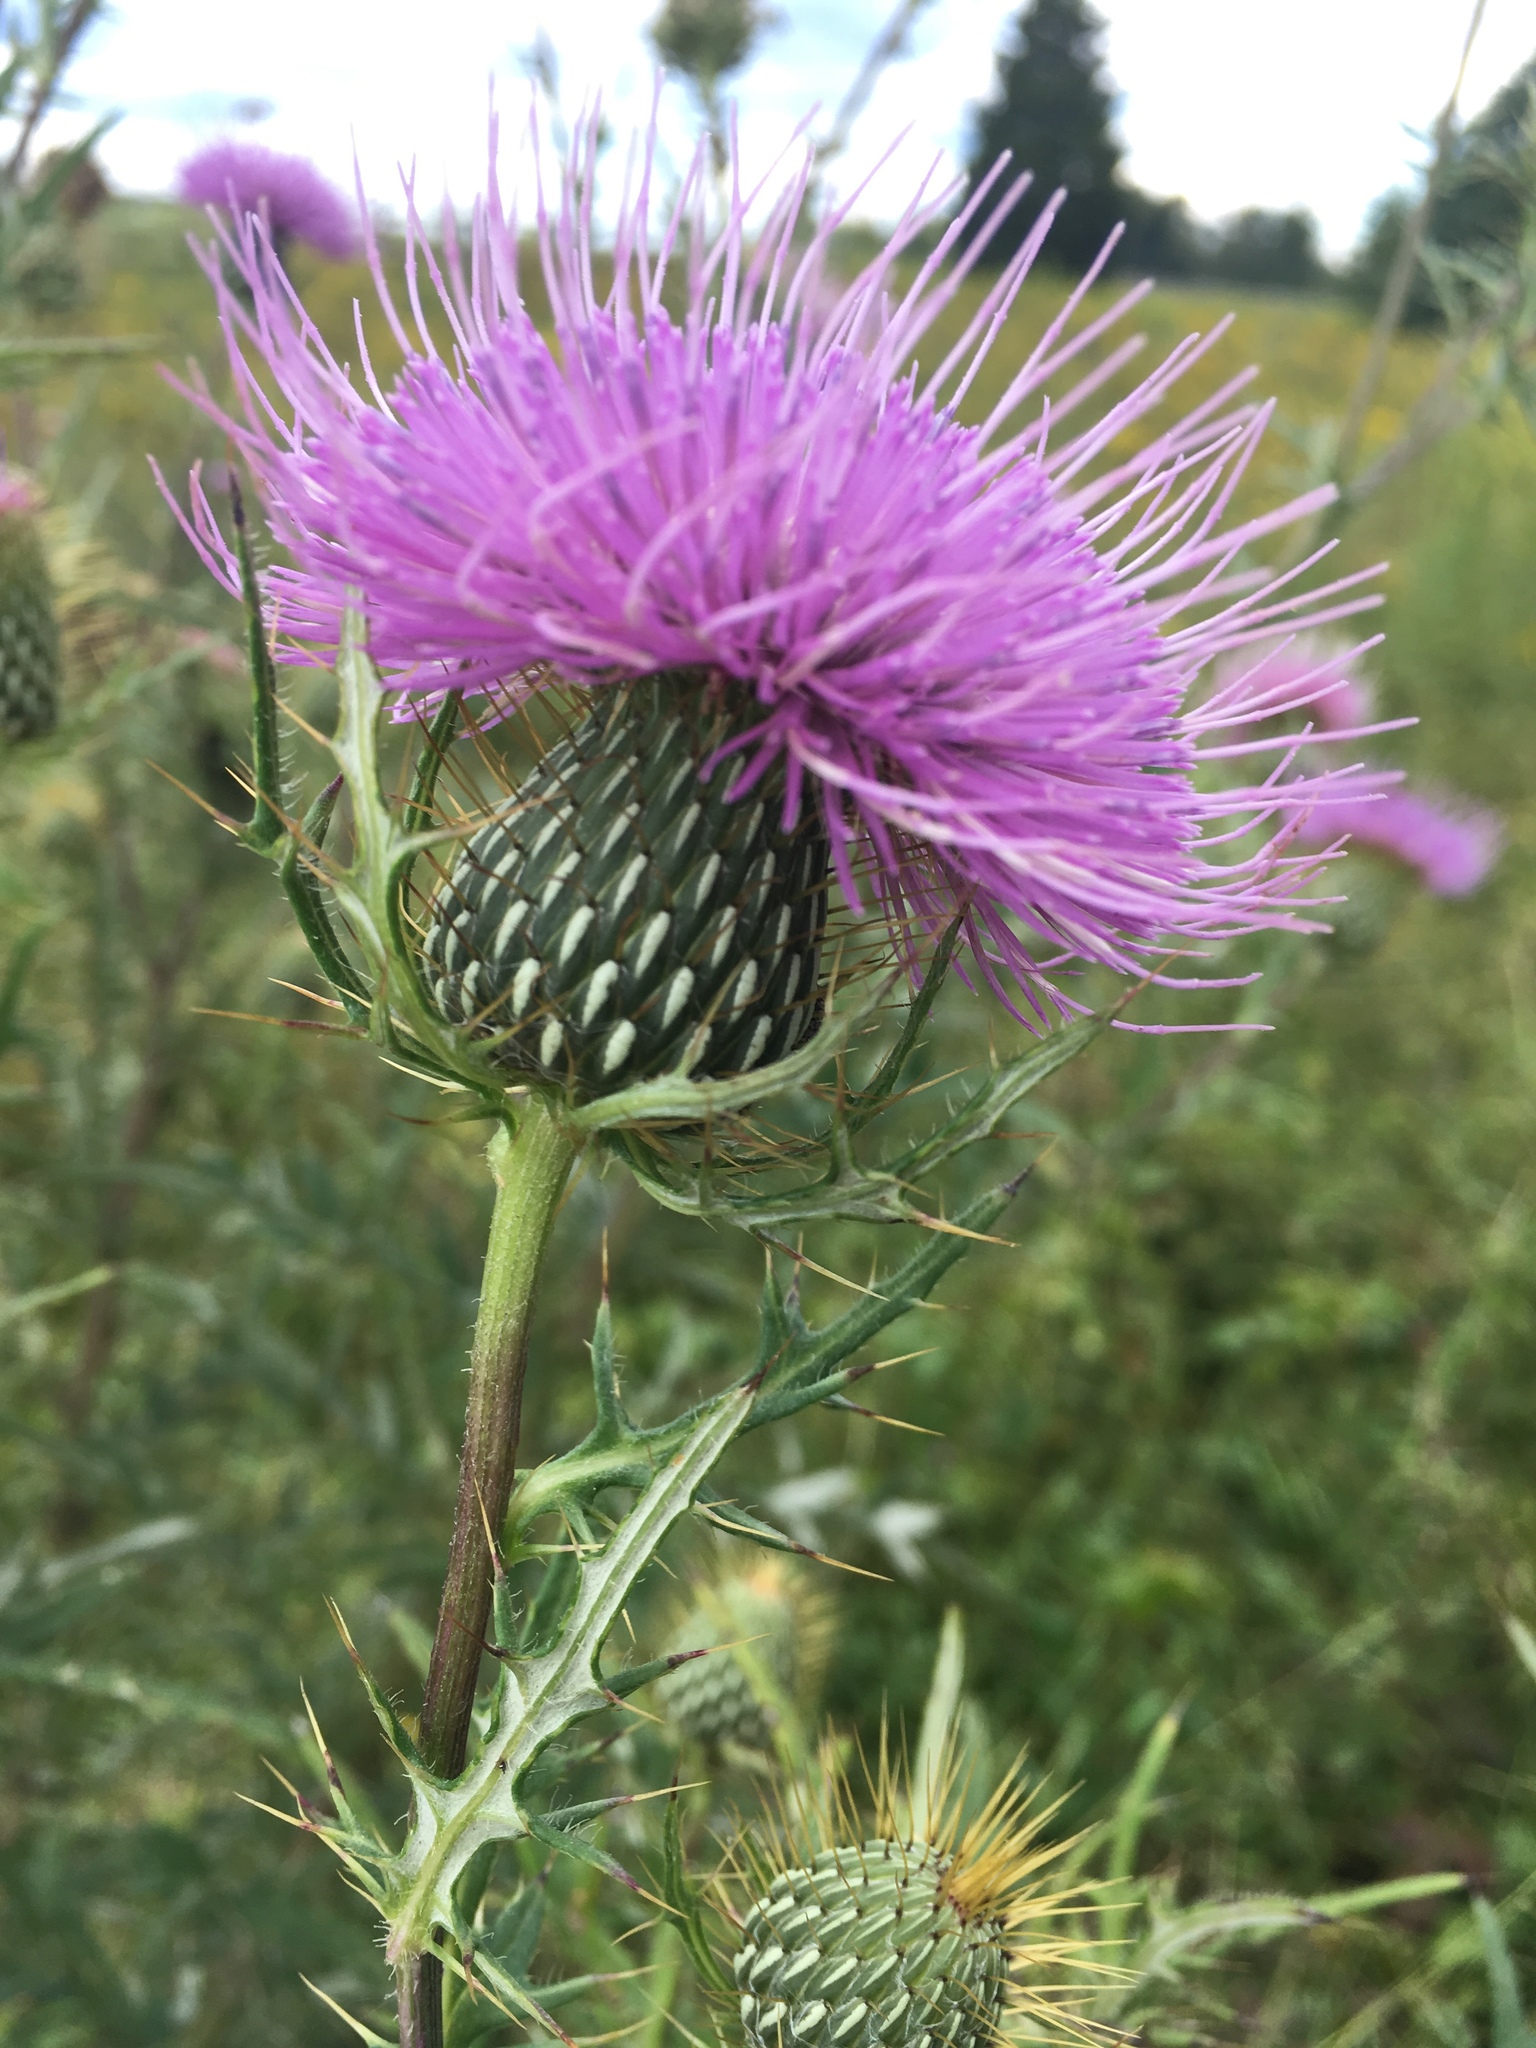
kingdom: Plantae
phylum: Tracheophyta
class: Magnoliopsida
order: Asterales
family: Asteraceae
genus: Cirsium
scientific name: Cirsium discolor
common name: Field thistle
